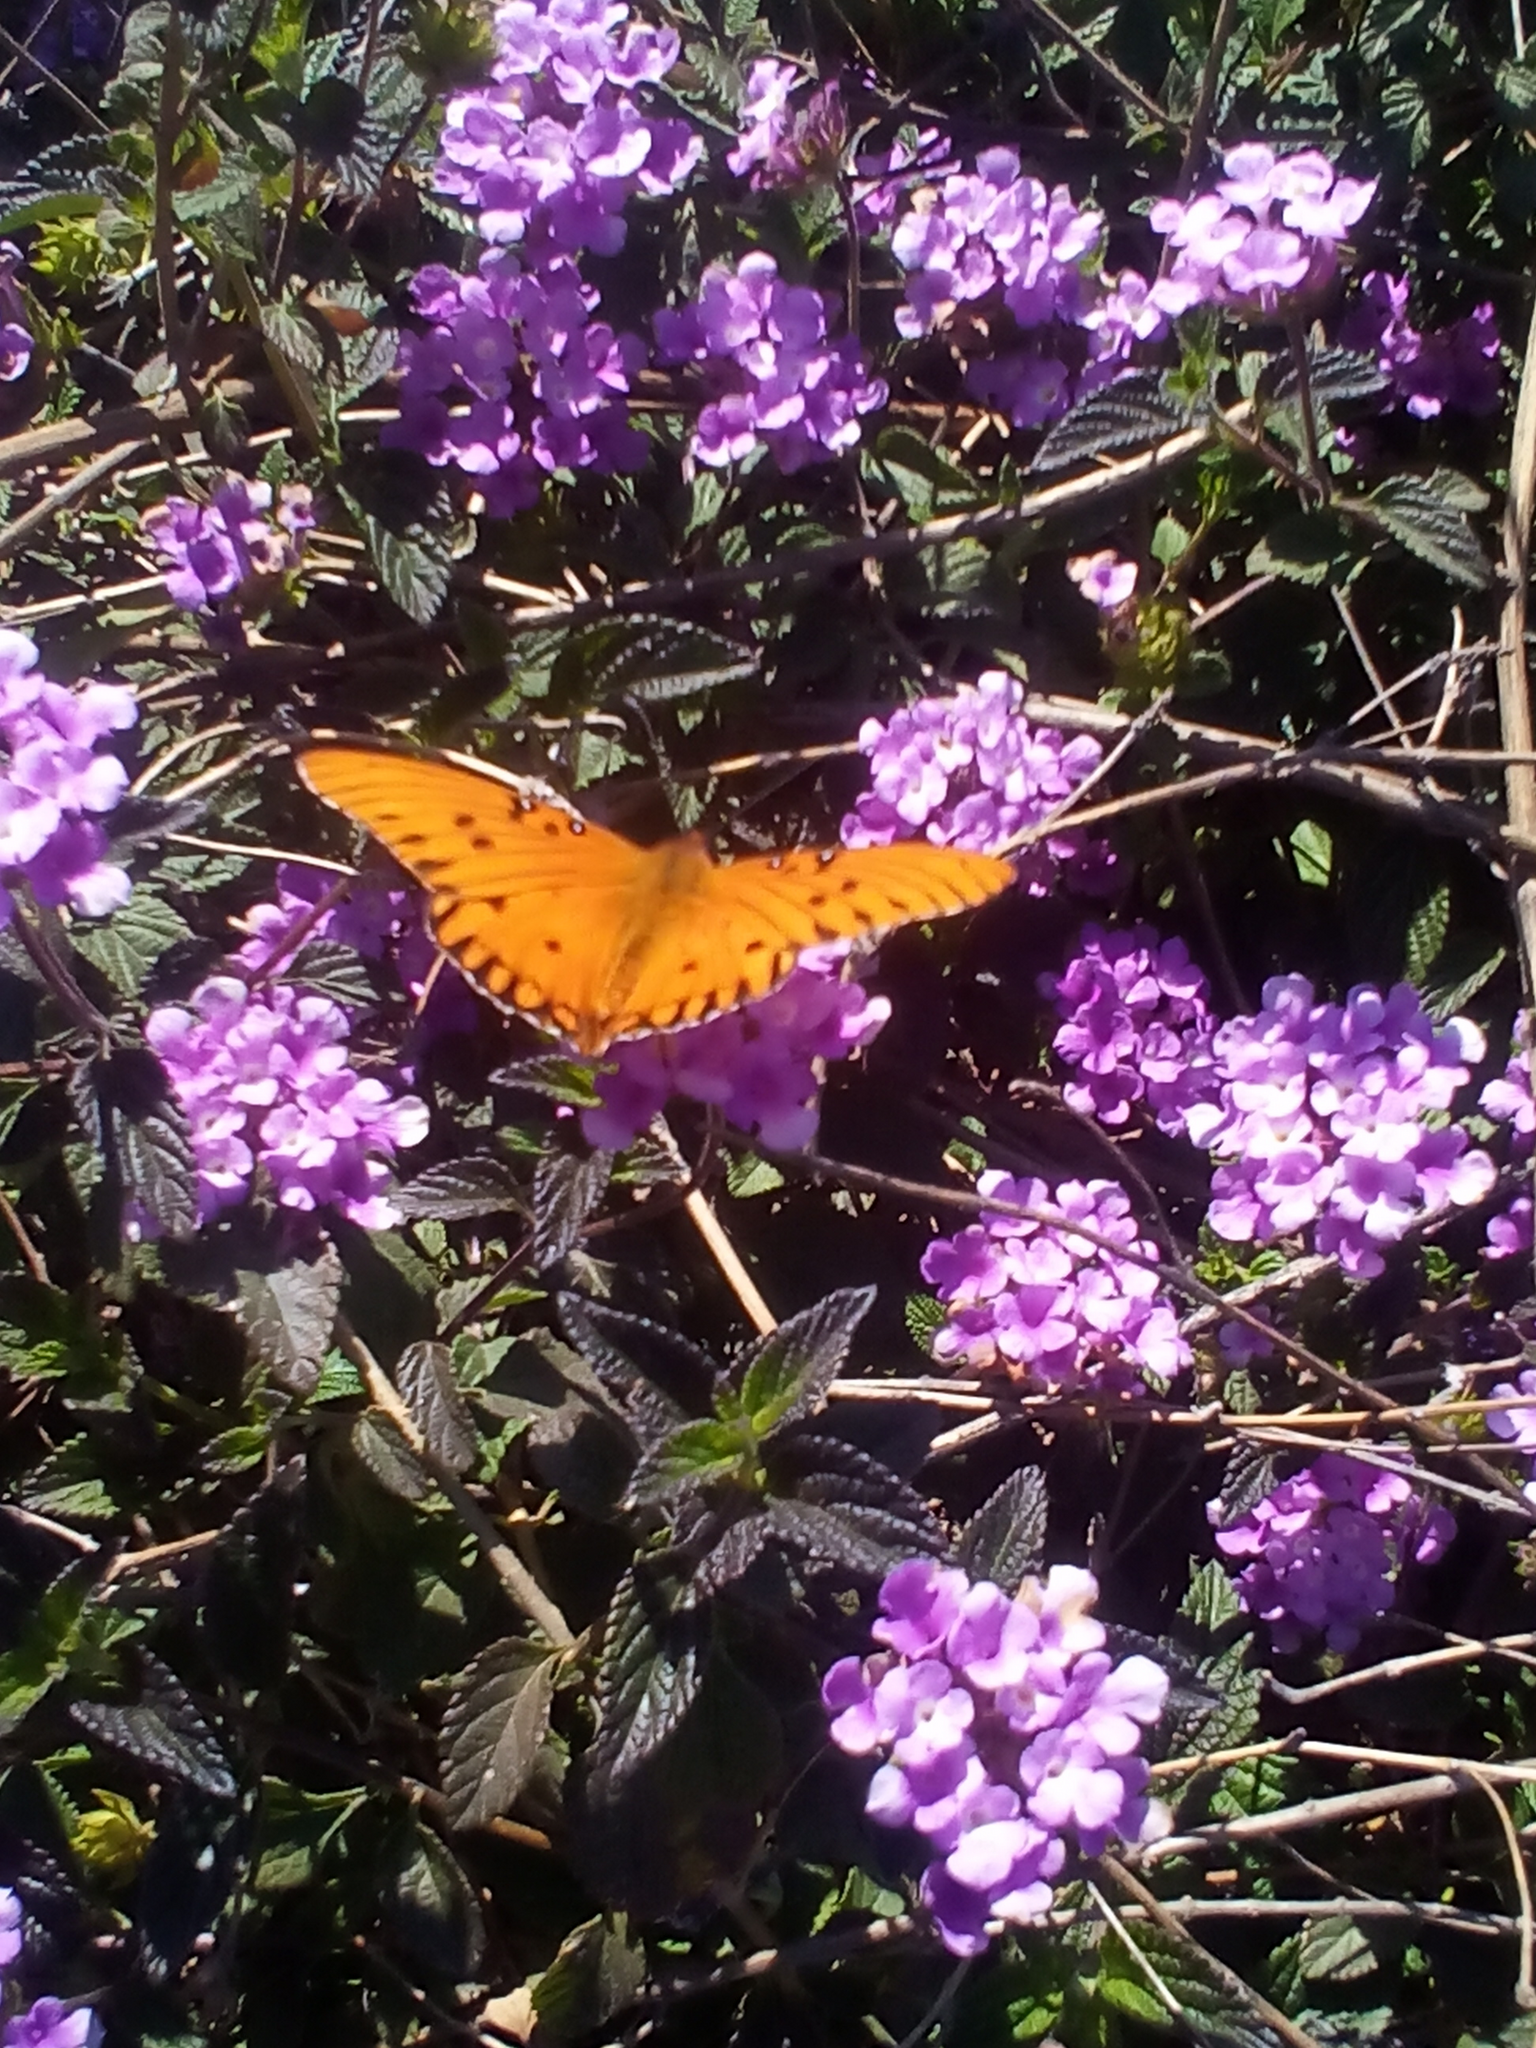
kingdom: Animalia
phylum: Arthropoda
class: Insecta
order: Lepidoptera
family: Nymphalidae
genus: Dione
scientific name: Dione vanillae
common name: Gulf fritillary
